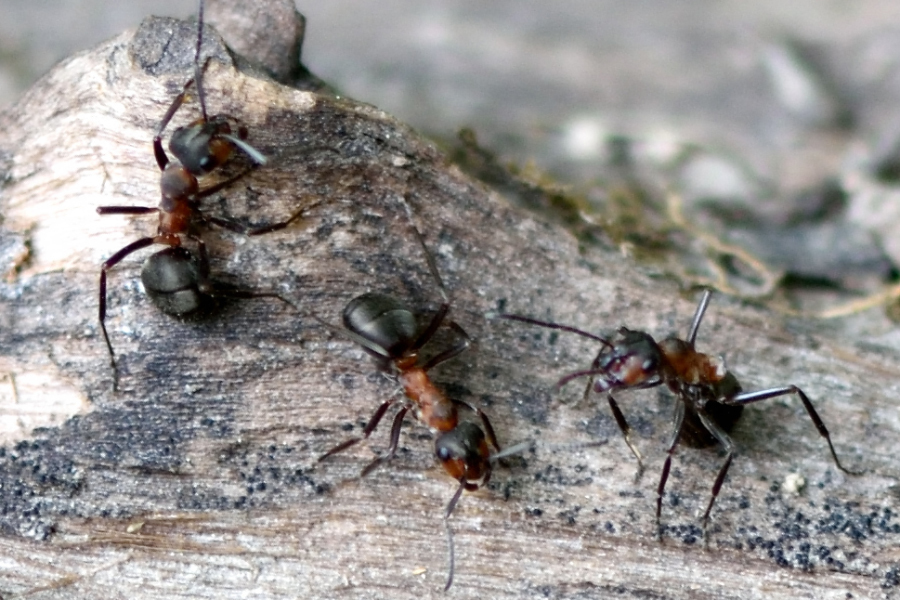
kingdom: Animalia
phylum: Arthropoda
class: Insecta
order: Hymenoptera
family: Formicidae
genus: Formica
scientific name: Formica
